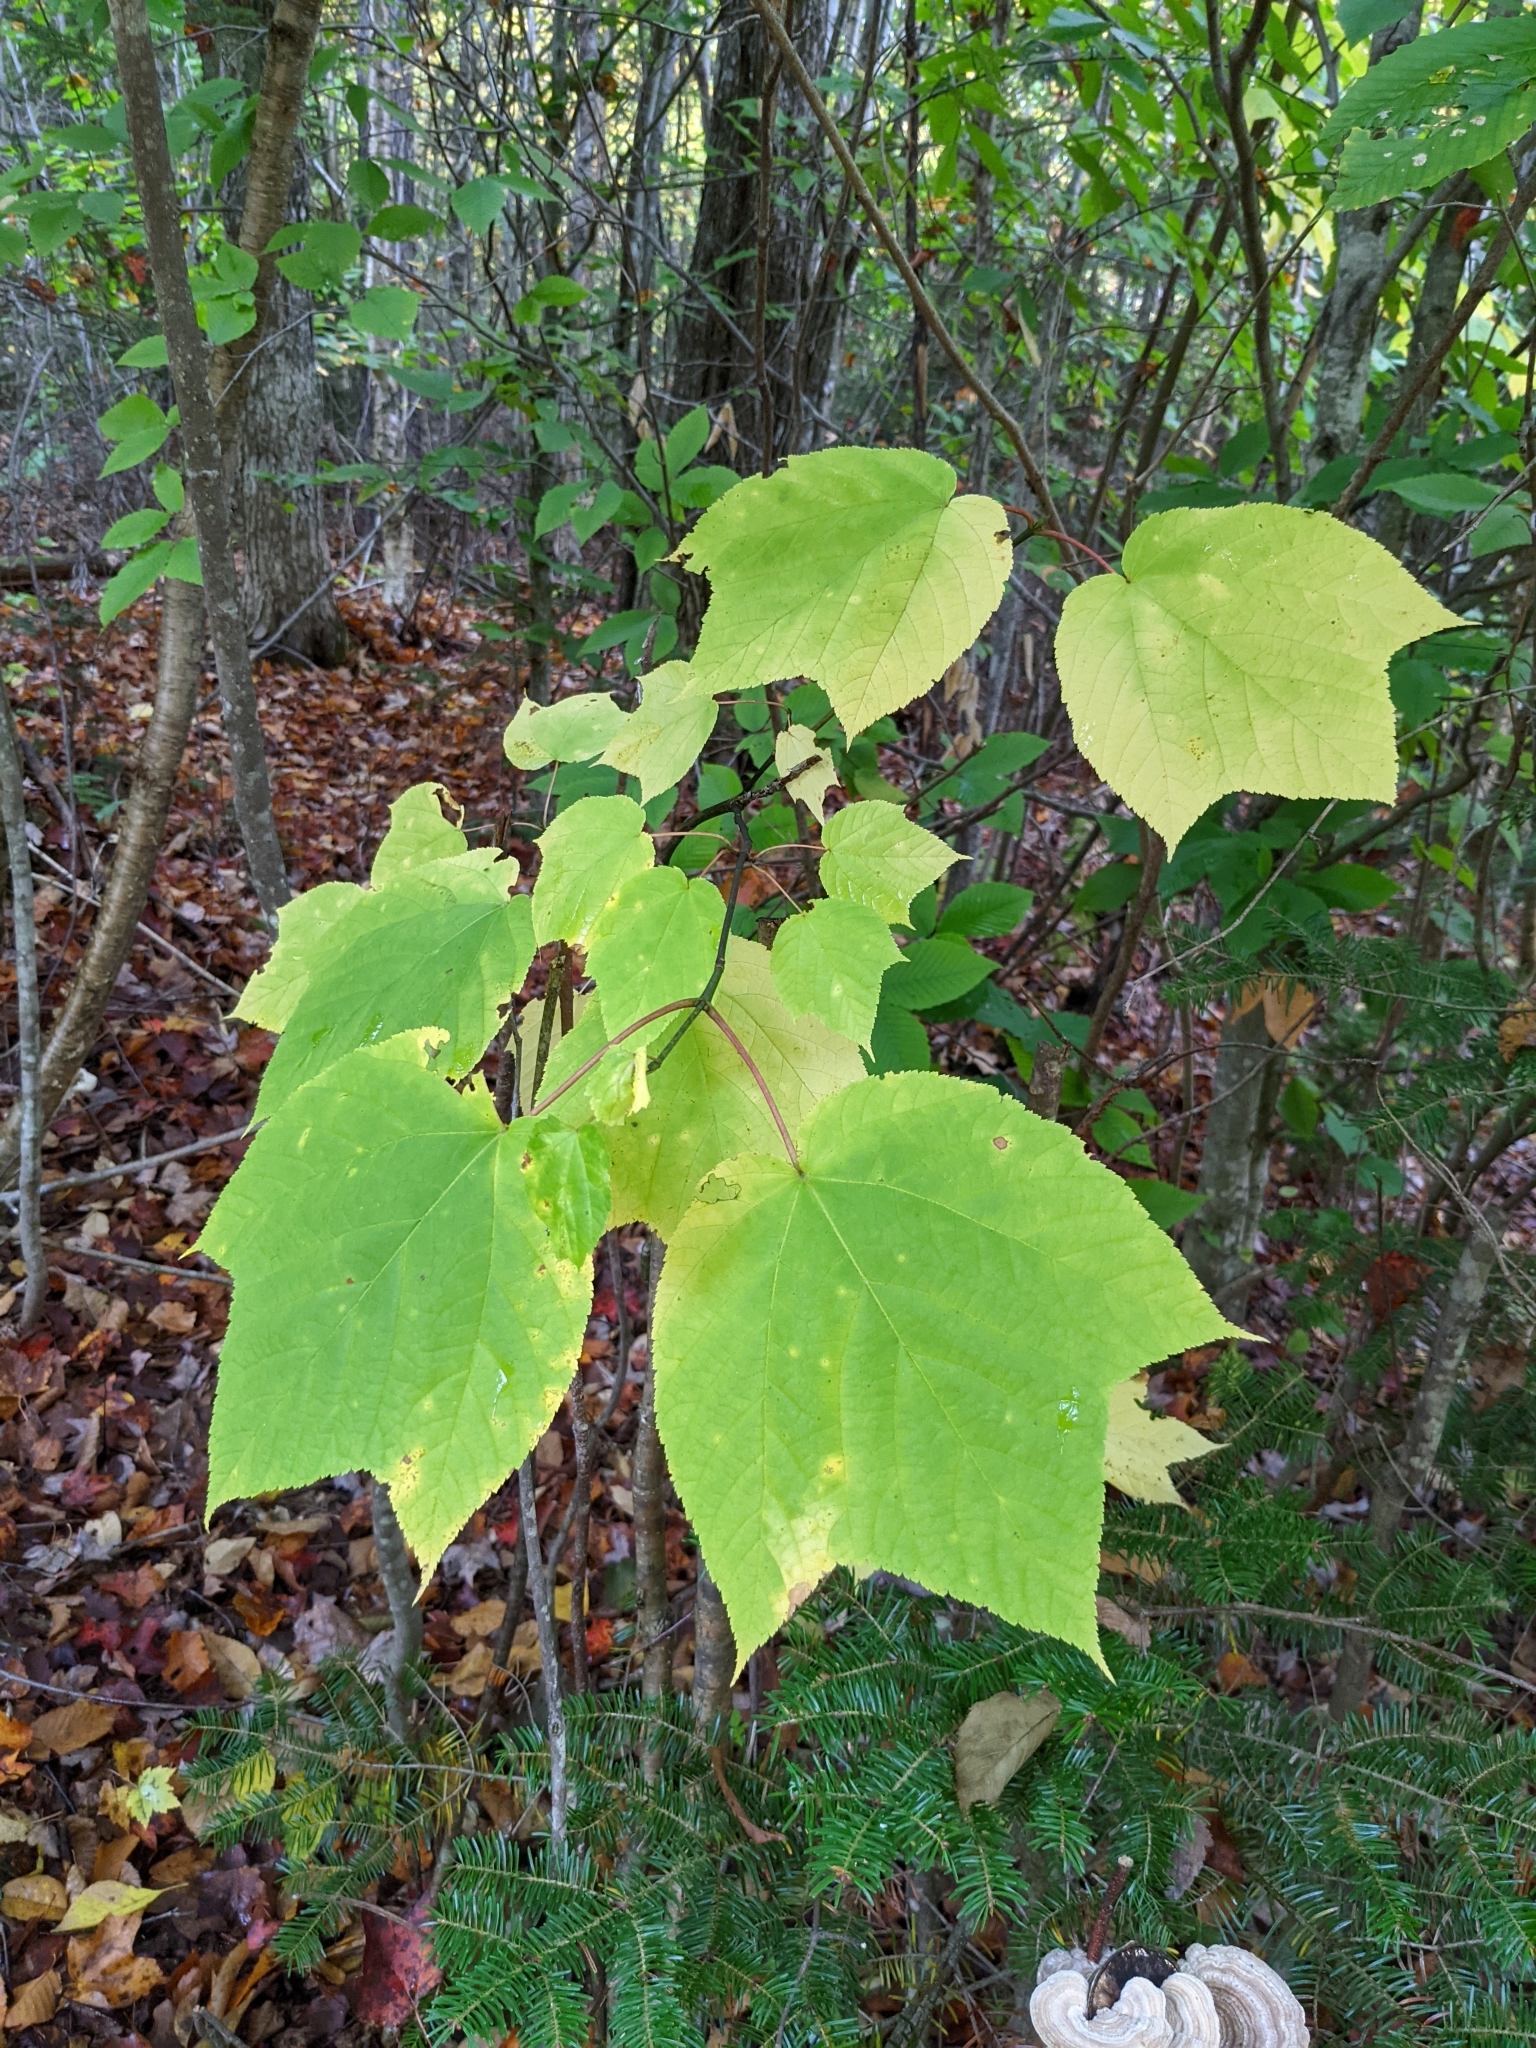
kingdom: Plantae
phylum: Tracheophyta
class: Magnoliopsida
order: Sapindales
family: Sapindaceae
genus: Acer
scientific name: Acer pensylvanicum
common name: Moosewood
